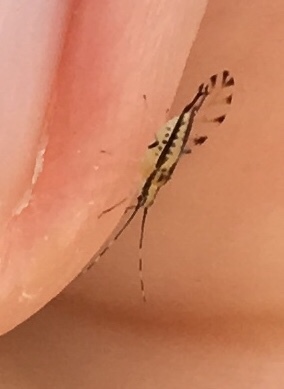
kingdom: Animalia
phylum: Arthropoda
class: Insecta
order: Hemiptera
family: Aphididae
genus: Eucallipterus
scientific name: Eucallipterus tiliae
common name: Aphid
